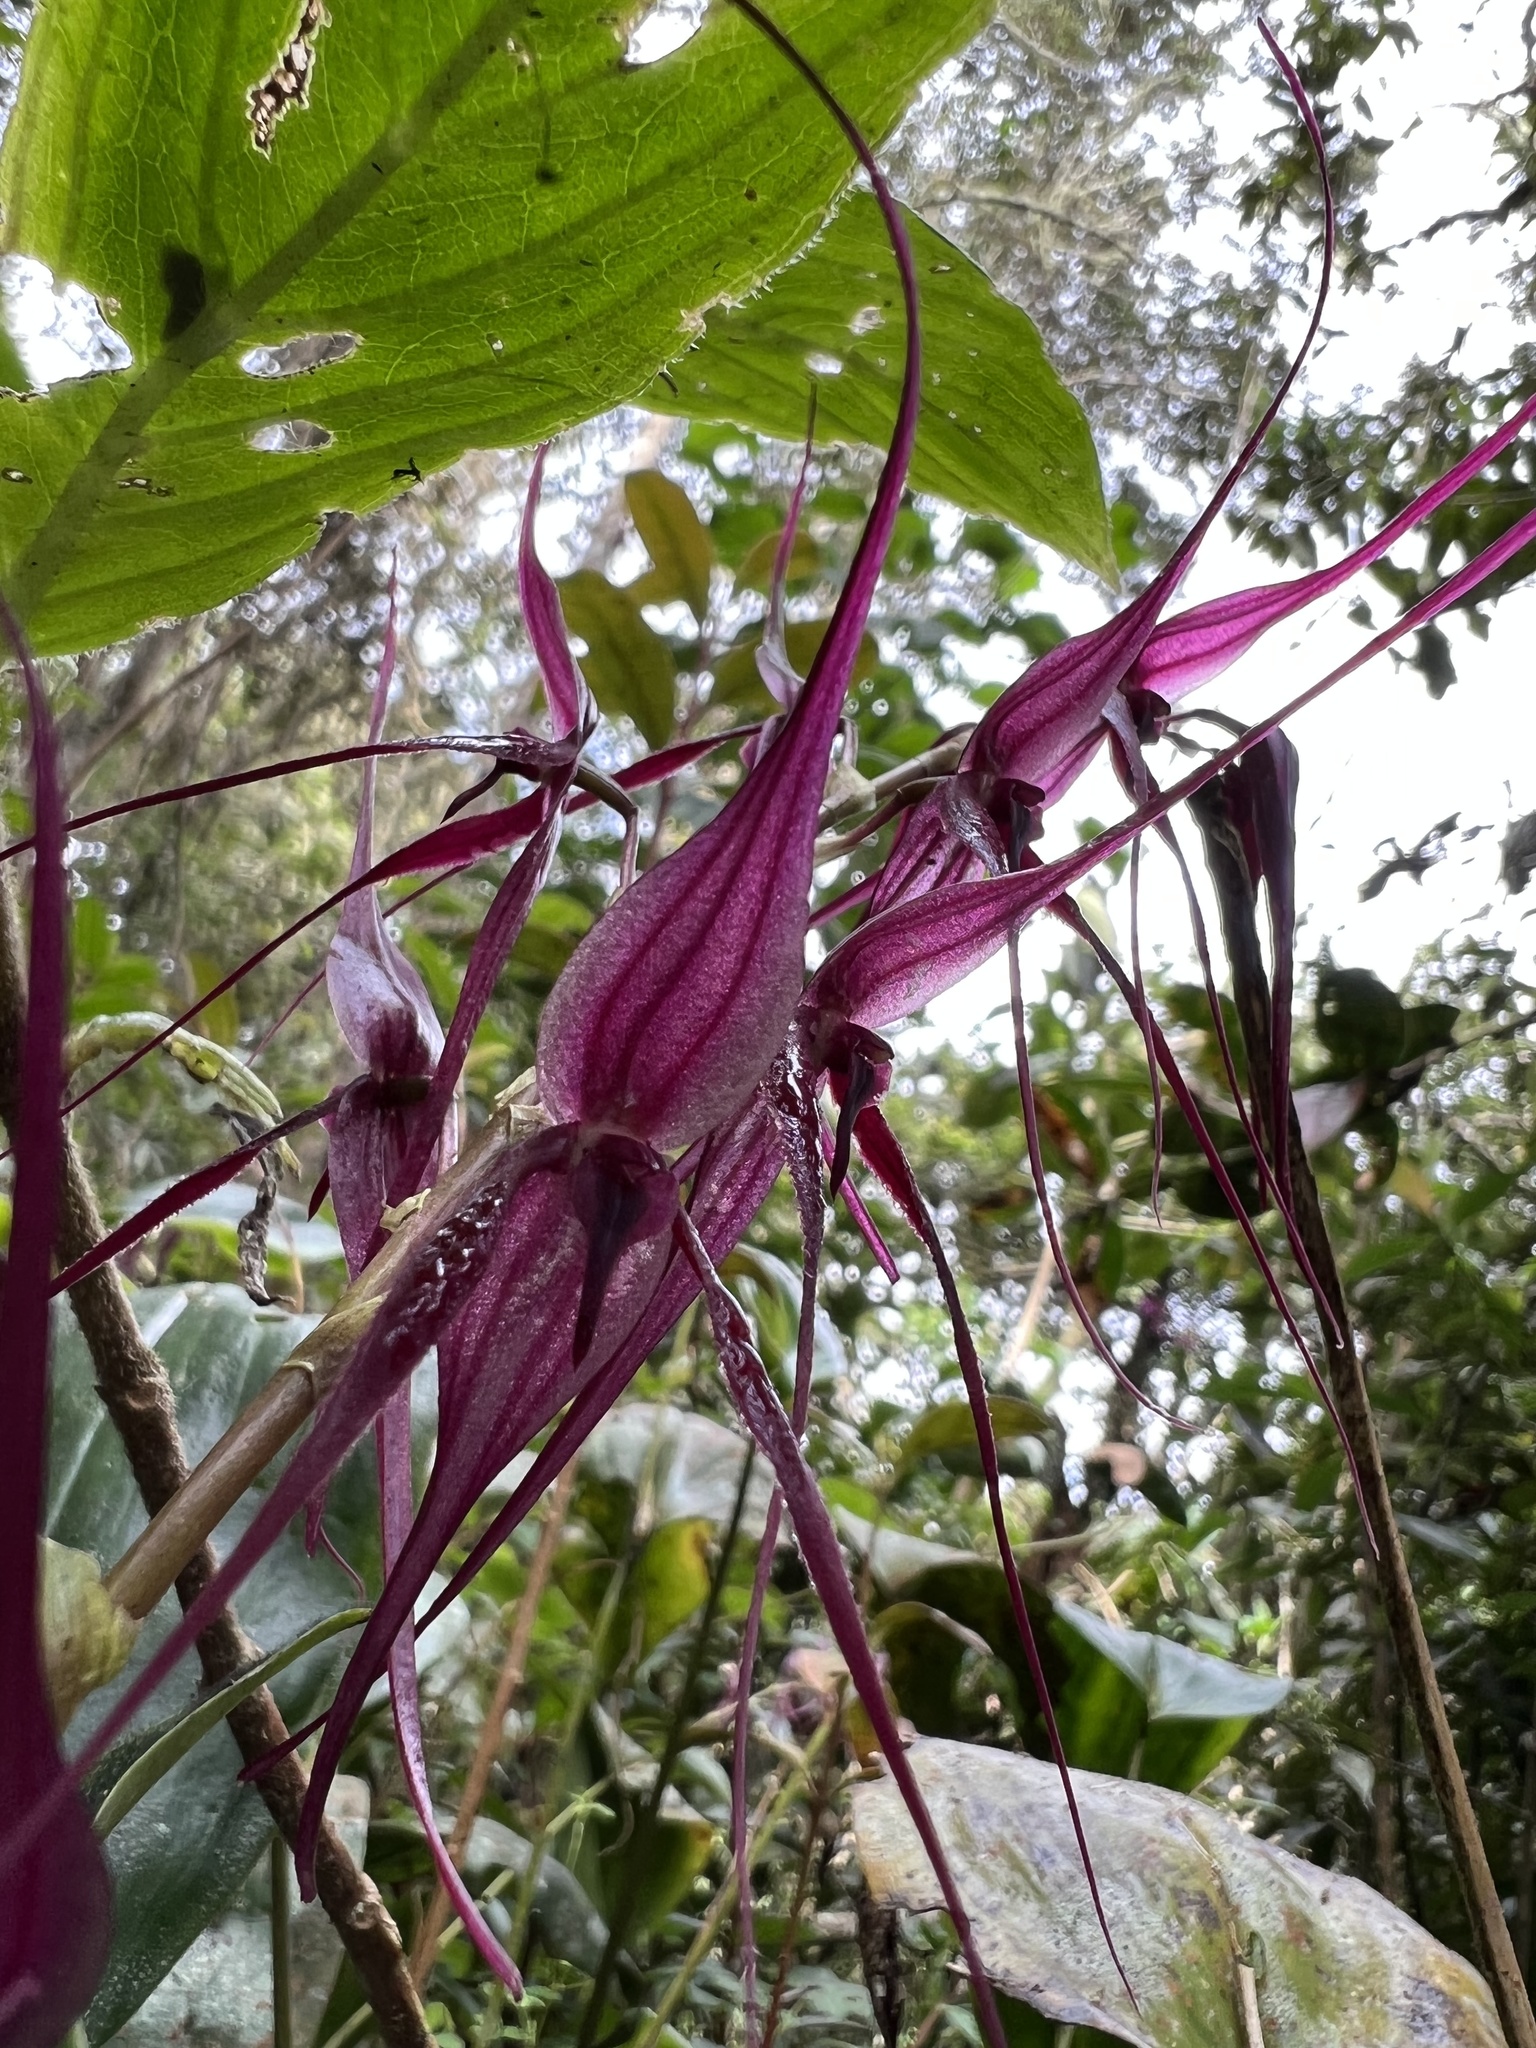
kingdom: Plantae
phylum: Tracheophyta
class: Liliopsida
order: Asparagales
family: Orchidaceae
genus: Pleurothallis
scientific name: Pleurothallis phalangifera
